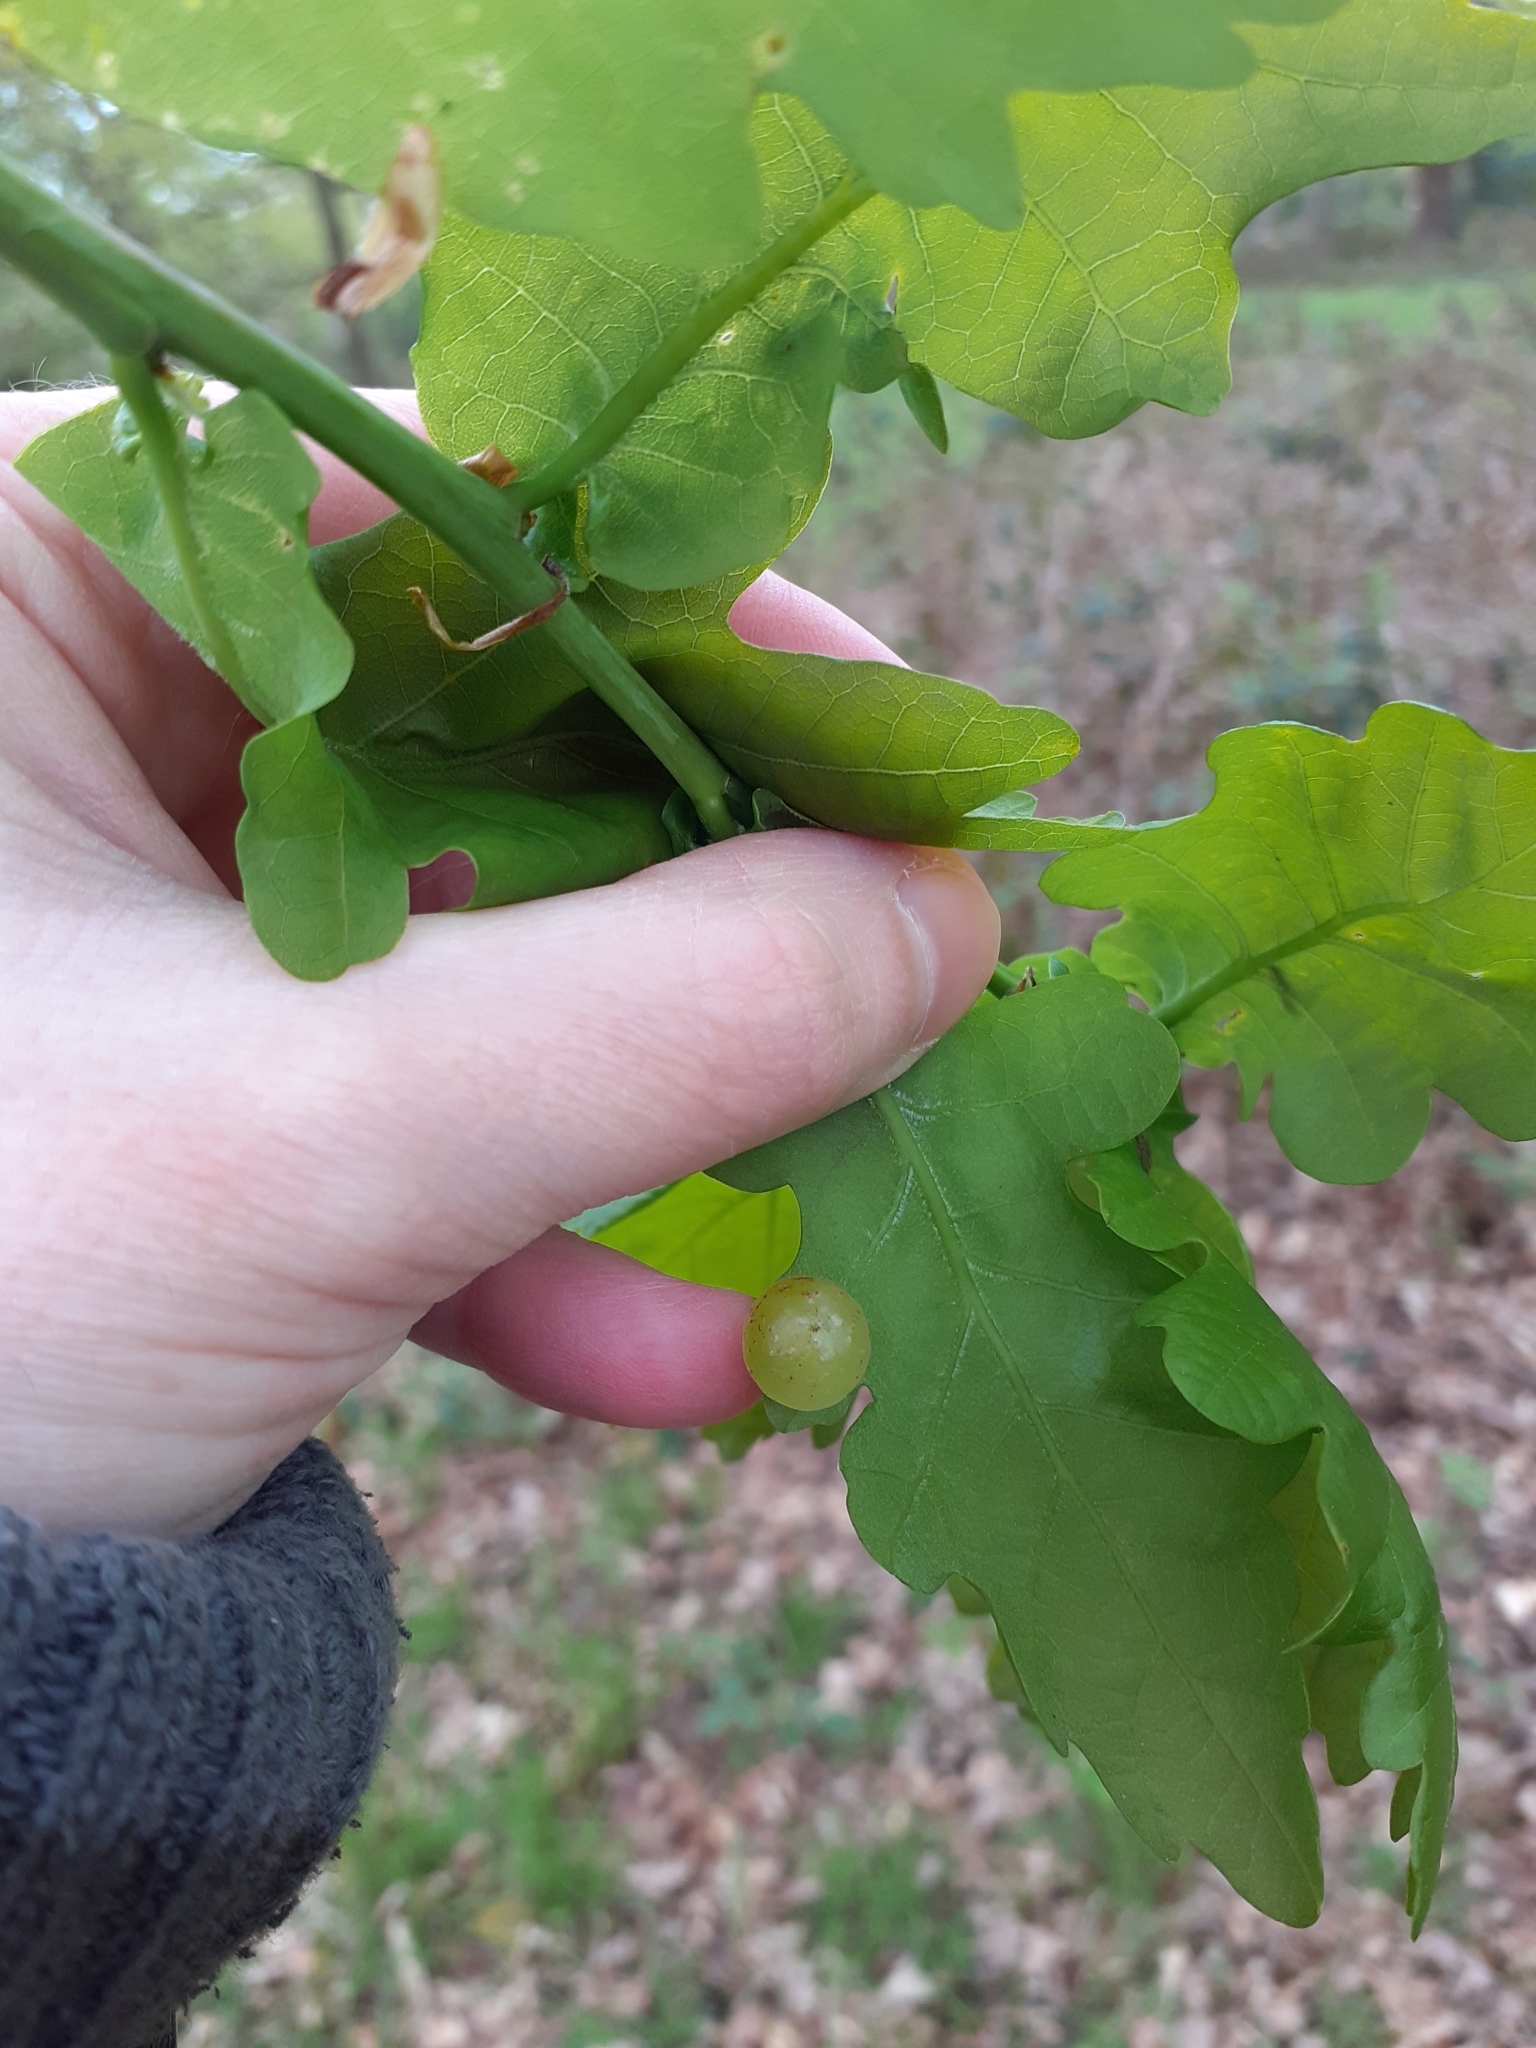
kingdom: Animalia
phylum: Arthropoda
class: Insecta
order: Hymenoptera
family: Cynipidae
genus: Neuroterus
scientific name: Neuroterus quercusbaccarum
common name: Common spangle gall
